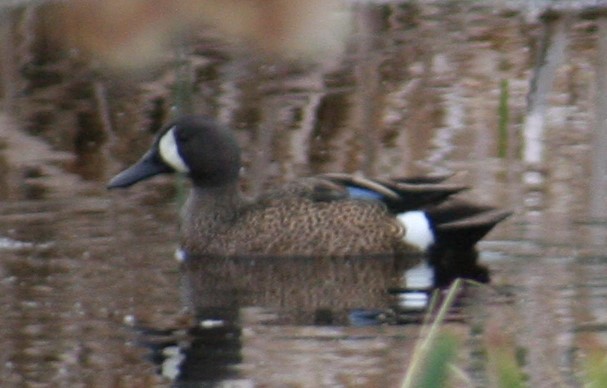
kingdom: Animalia
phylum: Chordata
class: Aves
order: Anseriformes
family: Anatidae
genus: Spatula
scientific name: Spatula discors
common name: Blue-winged teal
